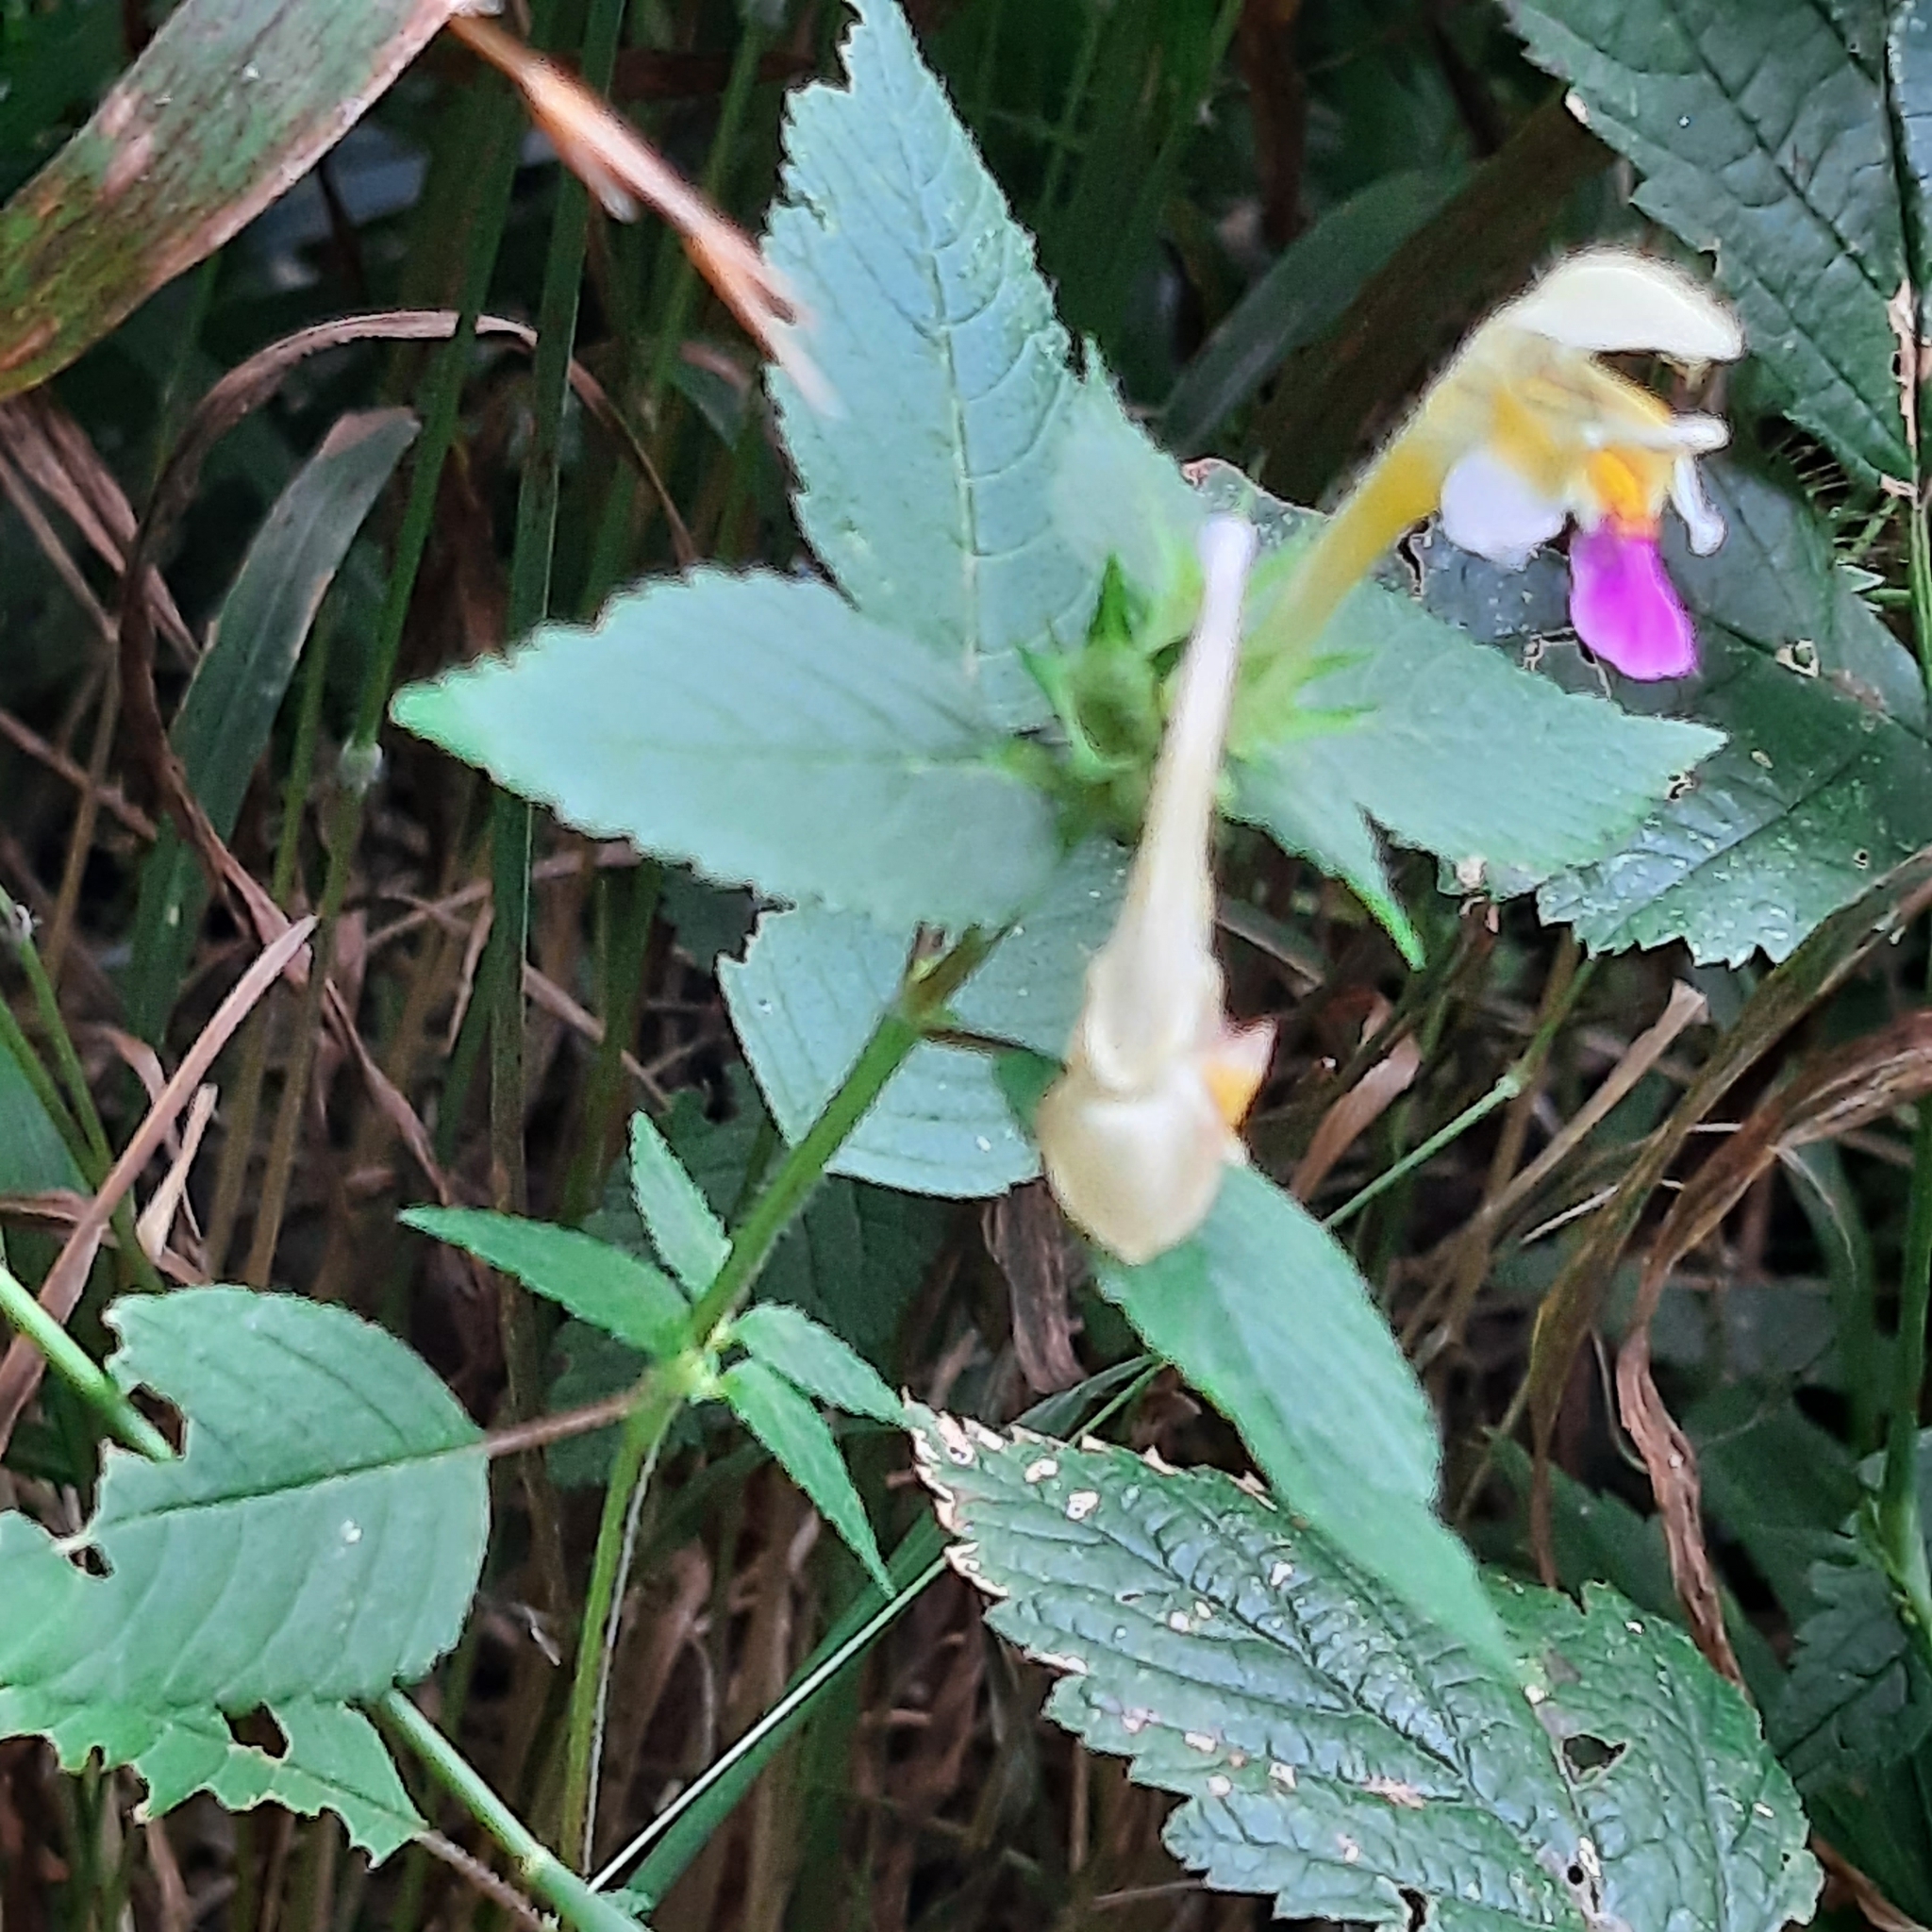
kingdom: Plantae
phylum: Tracheophyta
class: Magnoliopsida
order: Lamiales
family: Lamiaceae
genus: Galeopsis
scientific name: Galeopsis speciosa
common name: Large-flowered hemp-nettle
